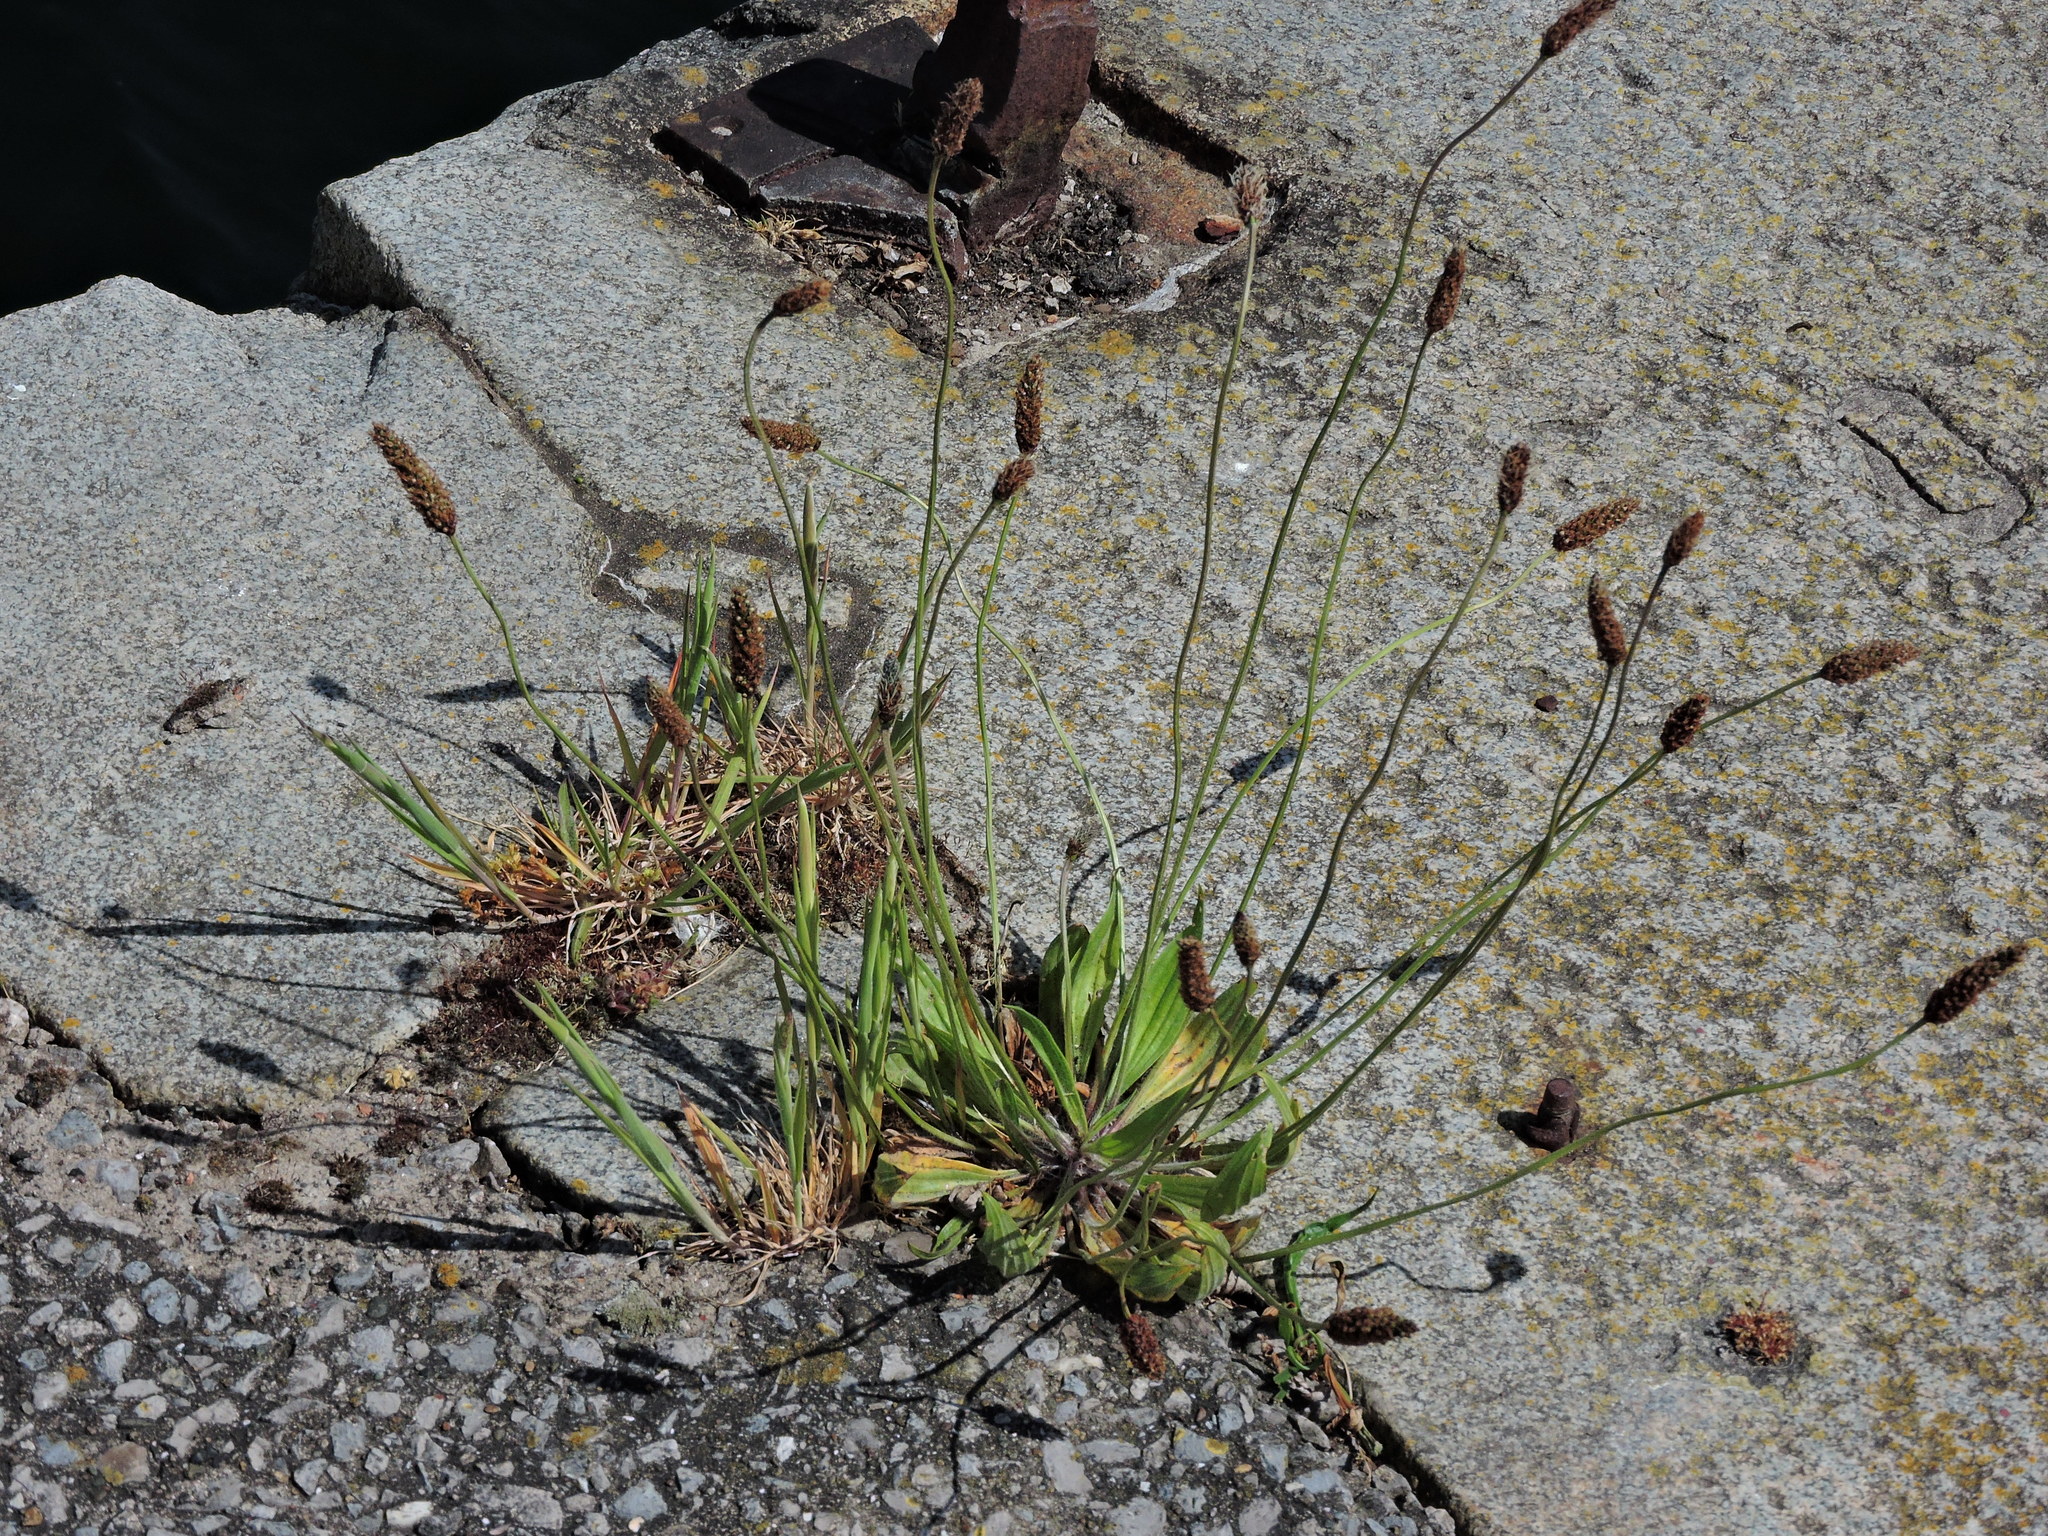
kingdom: Plantae
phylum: Tracheophyta
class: Magnoliopsida
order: Lamiales
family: Plantaginaceae
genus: Plantago
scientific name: Plantago lanceolata
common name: Ribwort plantain
